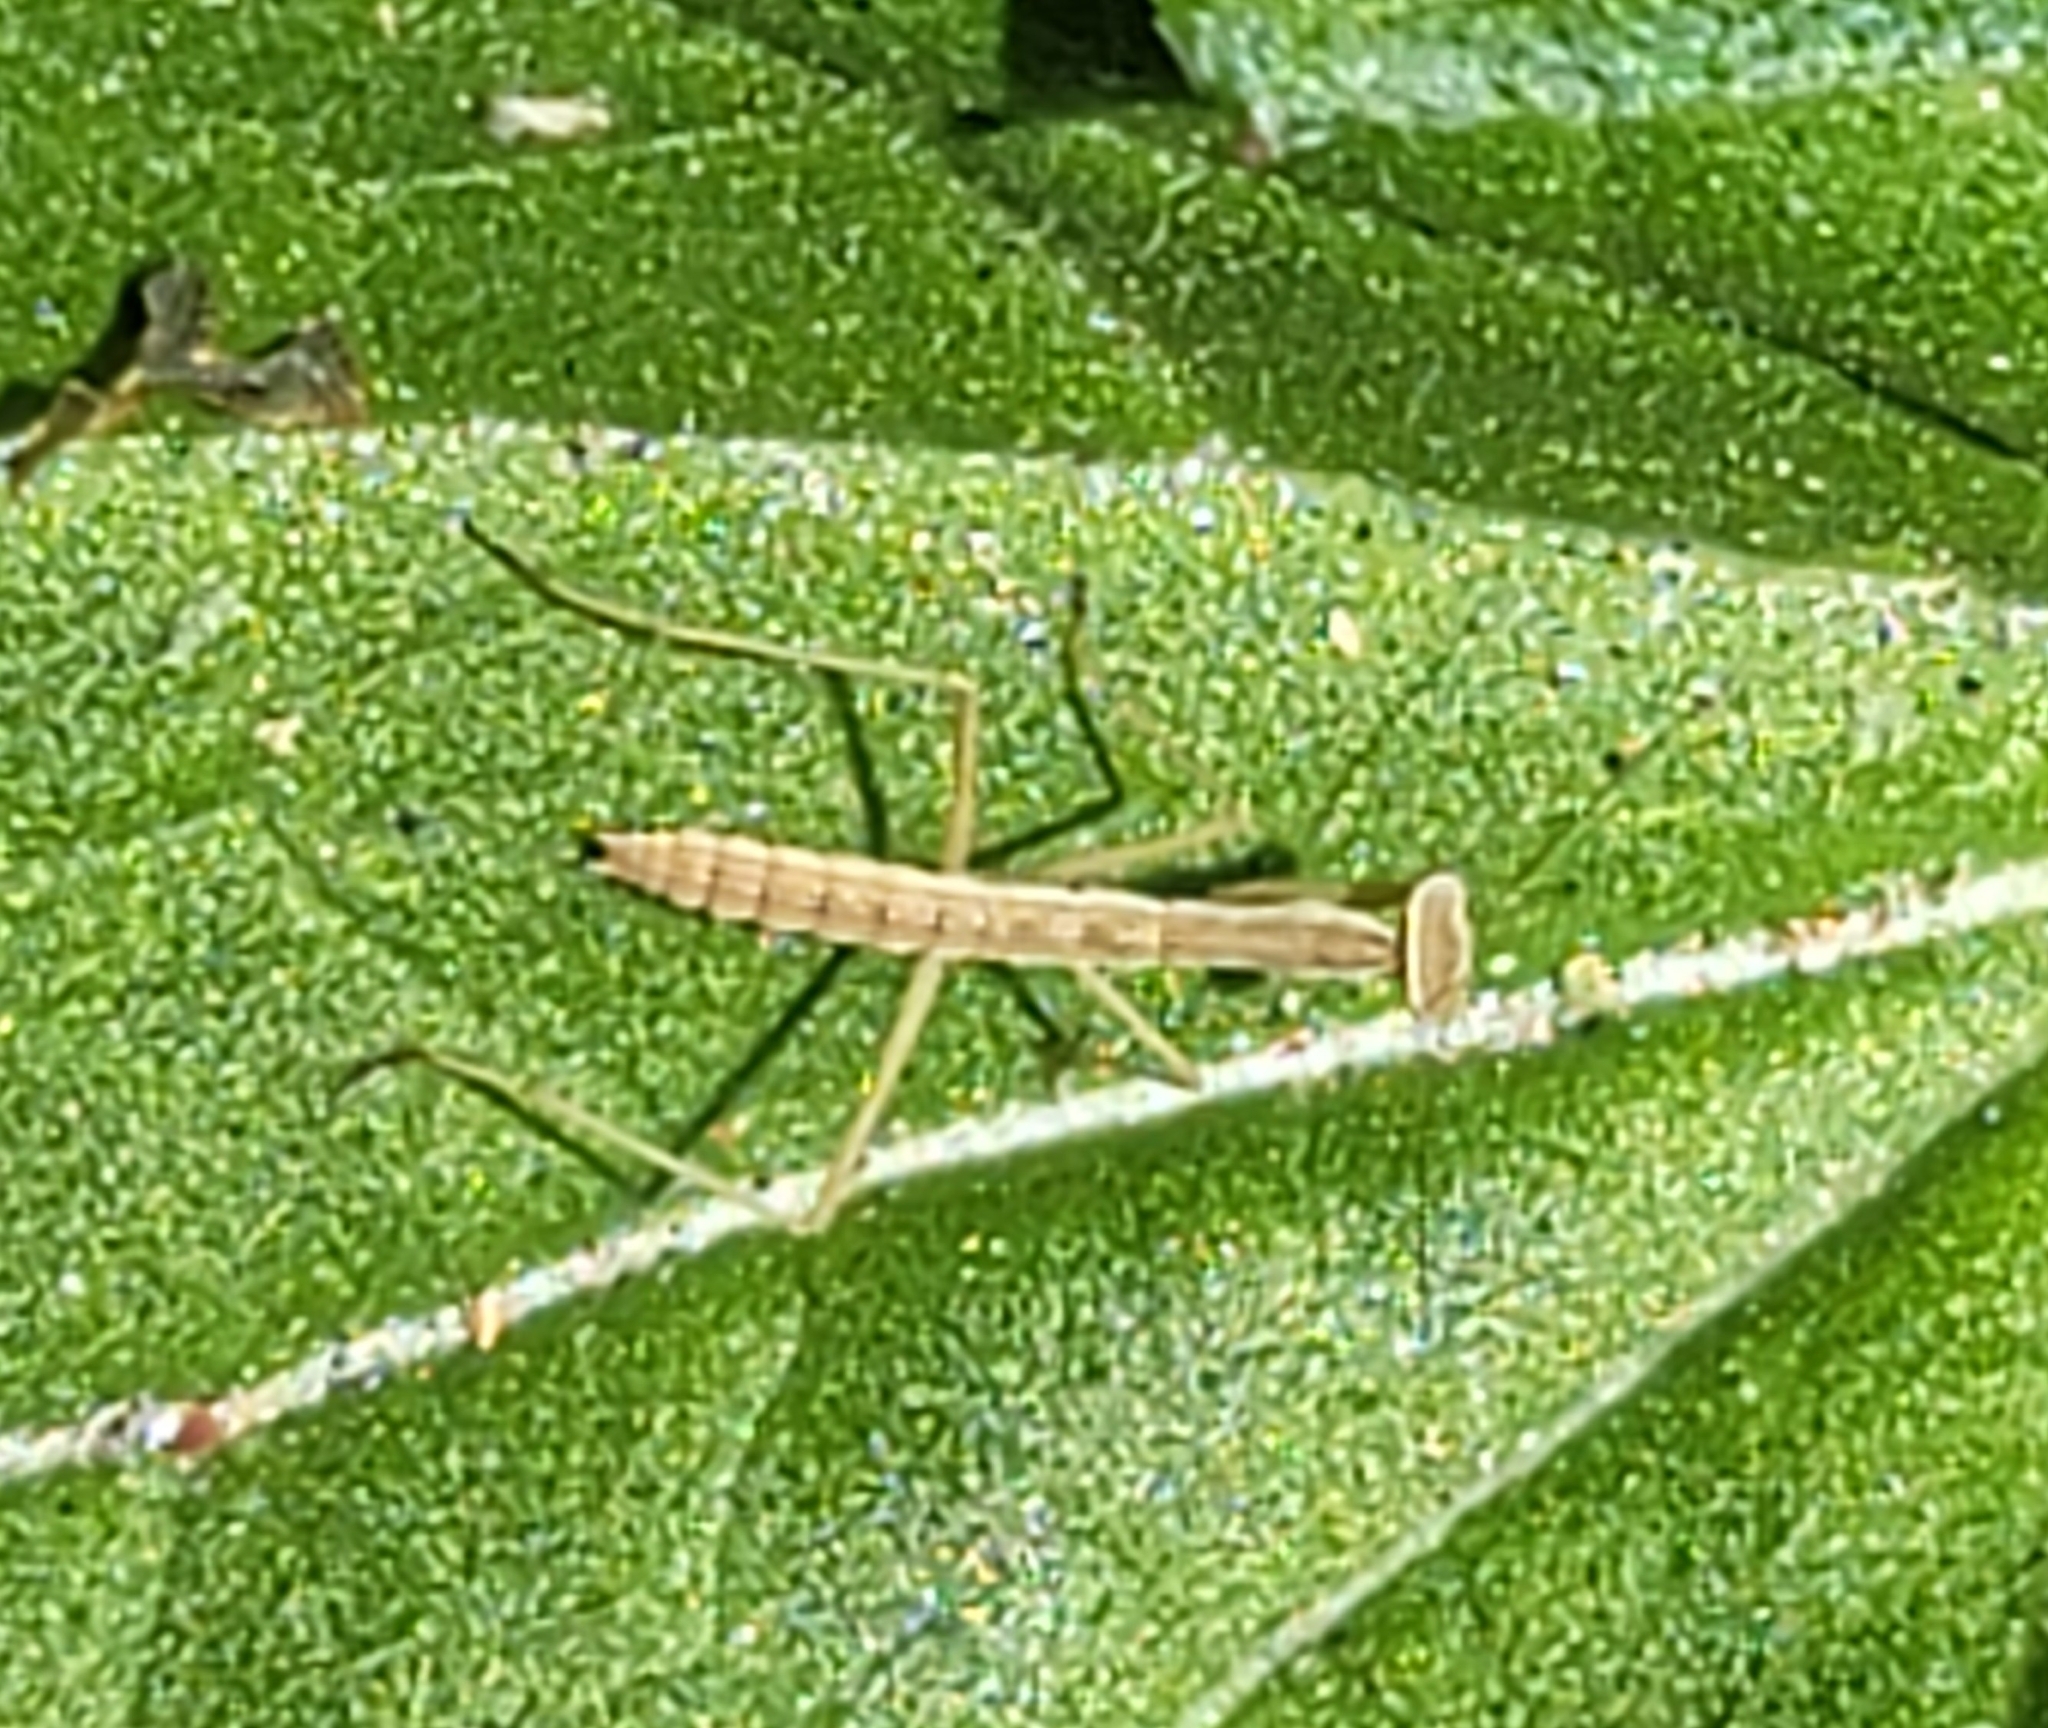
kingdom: Animalia
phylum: Arthropoda
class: Insecta
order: Mantodea
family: Mantidae
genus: Tenodera
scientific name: Tenodera sinensis
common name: Chinese mantis
